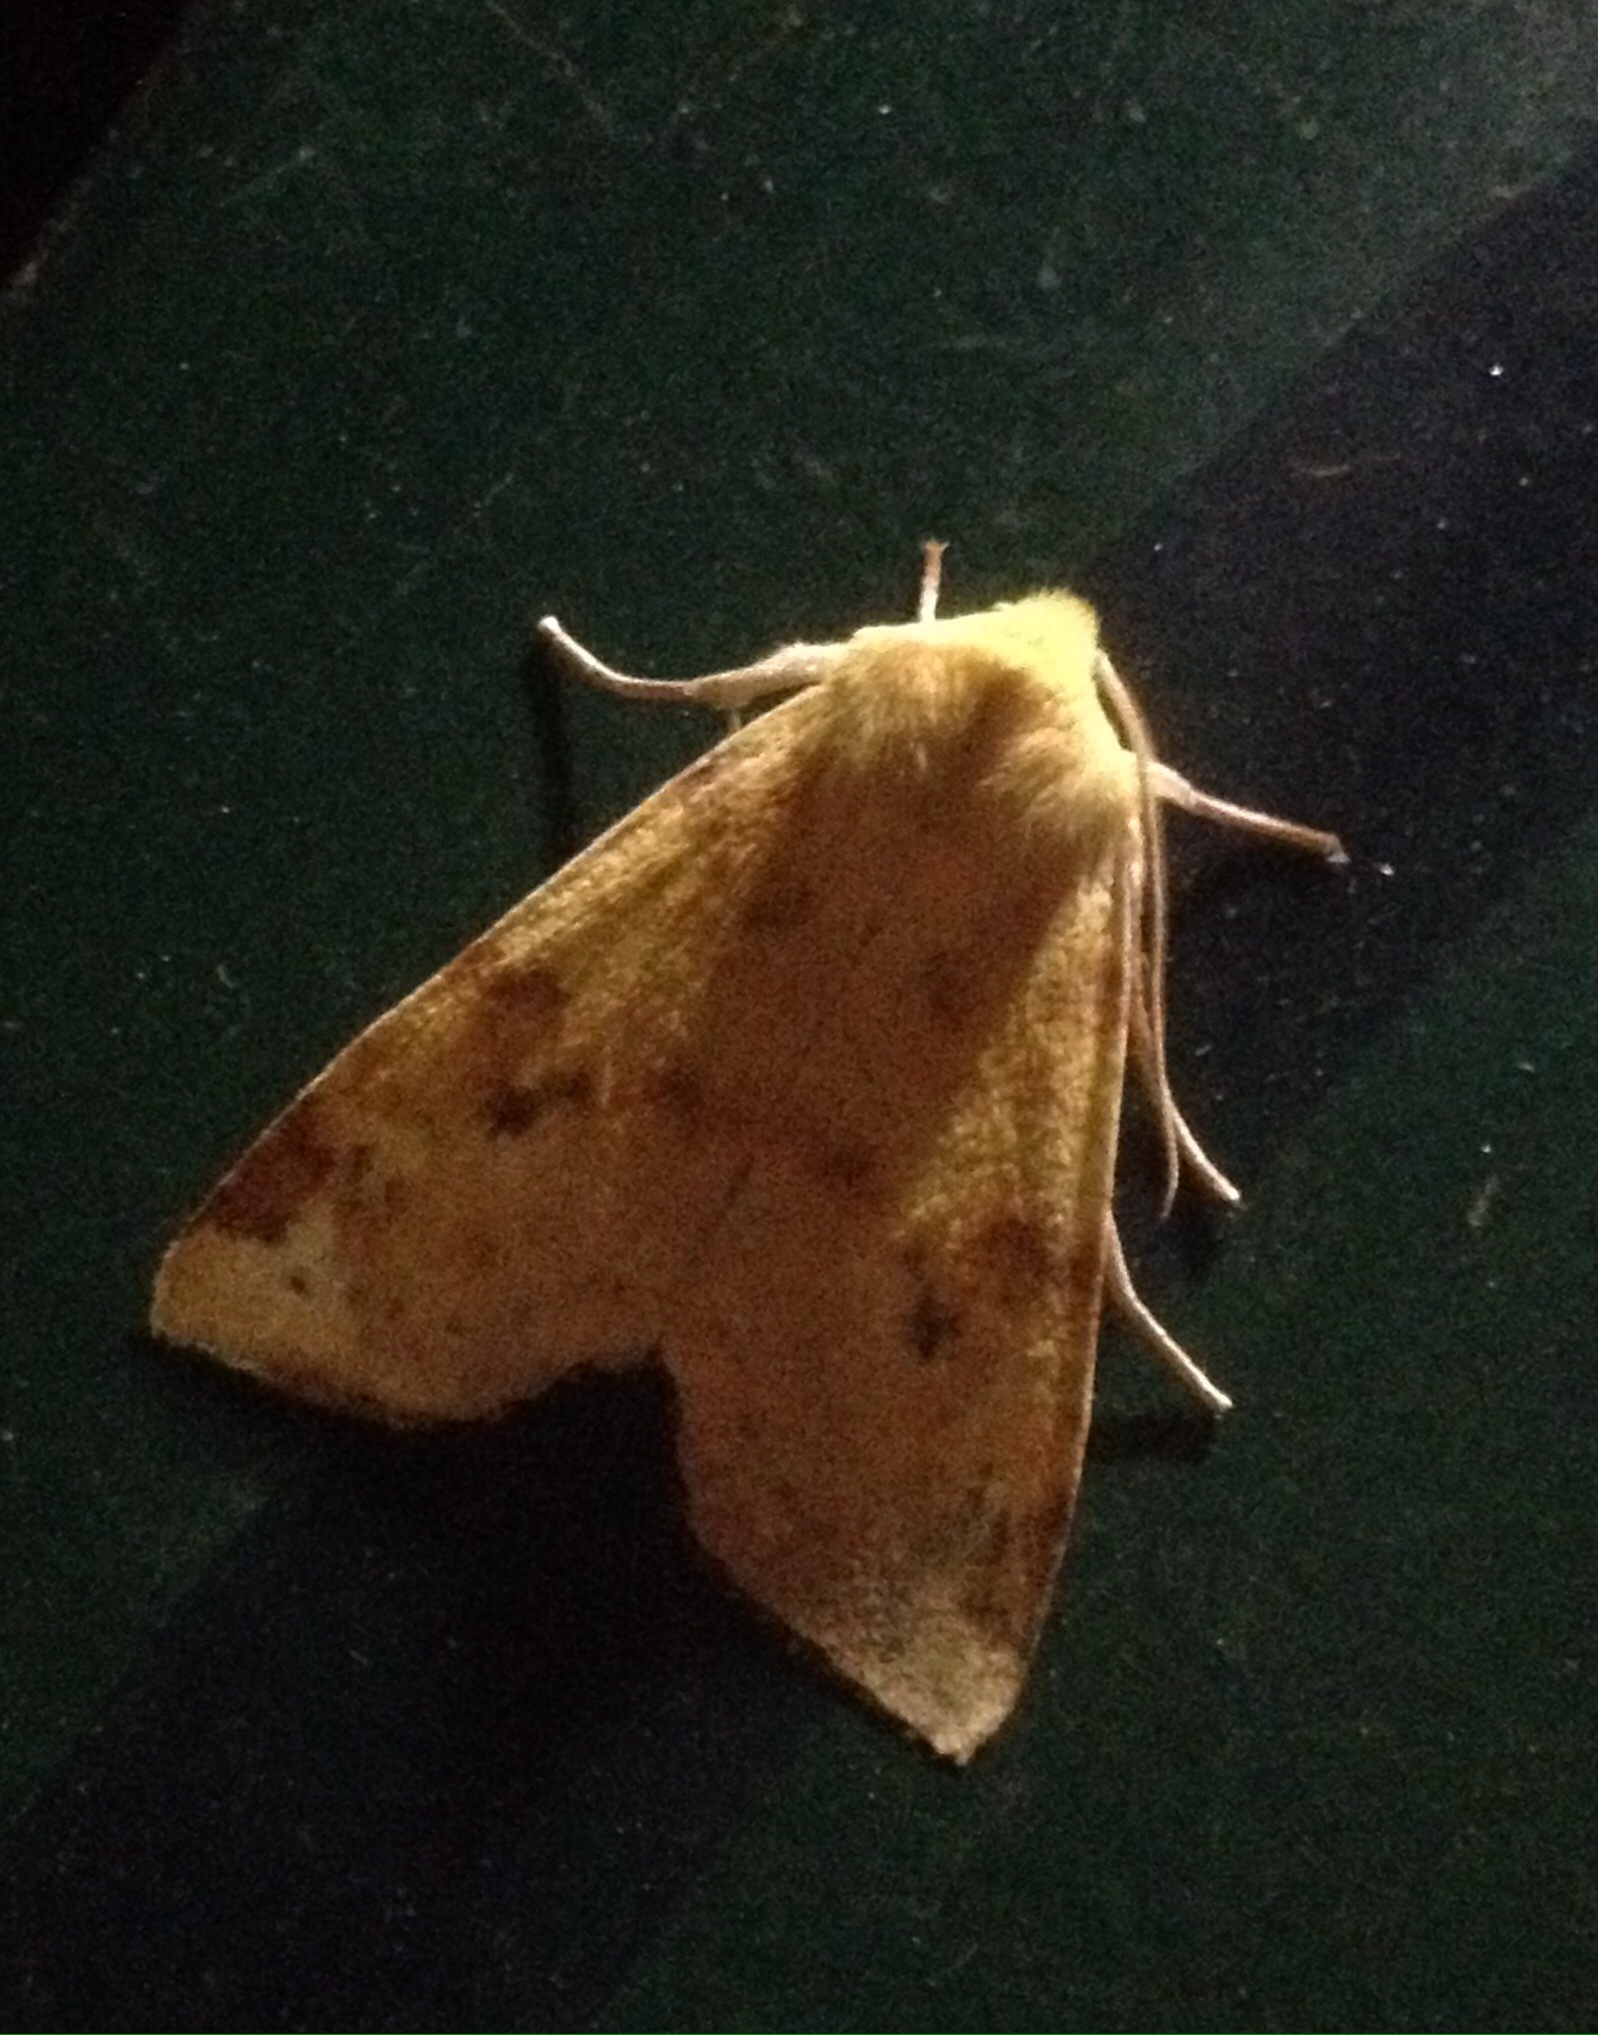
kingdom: Animalia
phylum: Arthropoda
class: Insecta
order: Lepidoptera
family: Noctuidae
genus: Xanthia
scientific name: Xanthia icteritia
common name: The sallow
